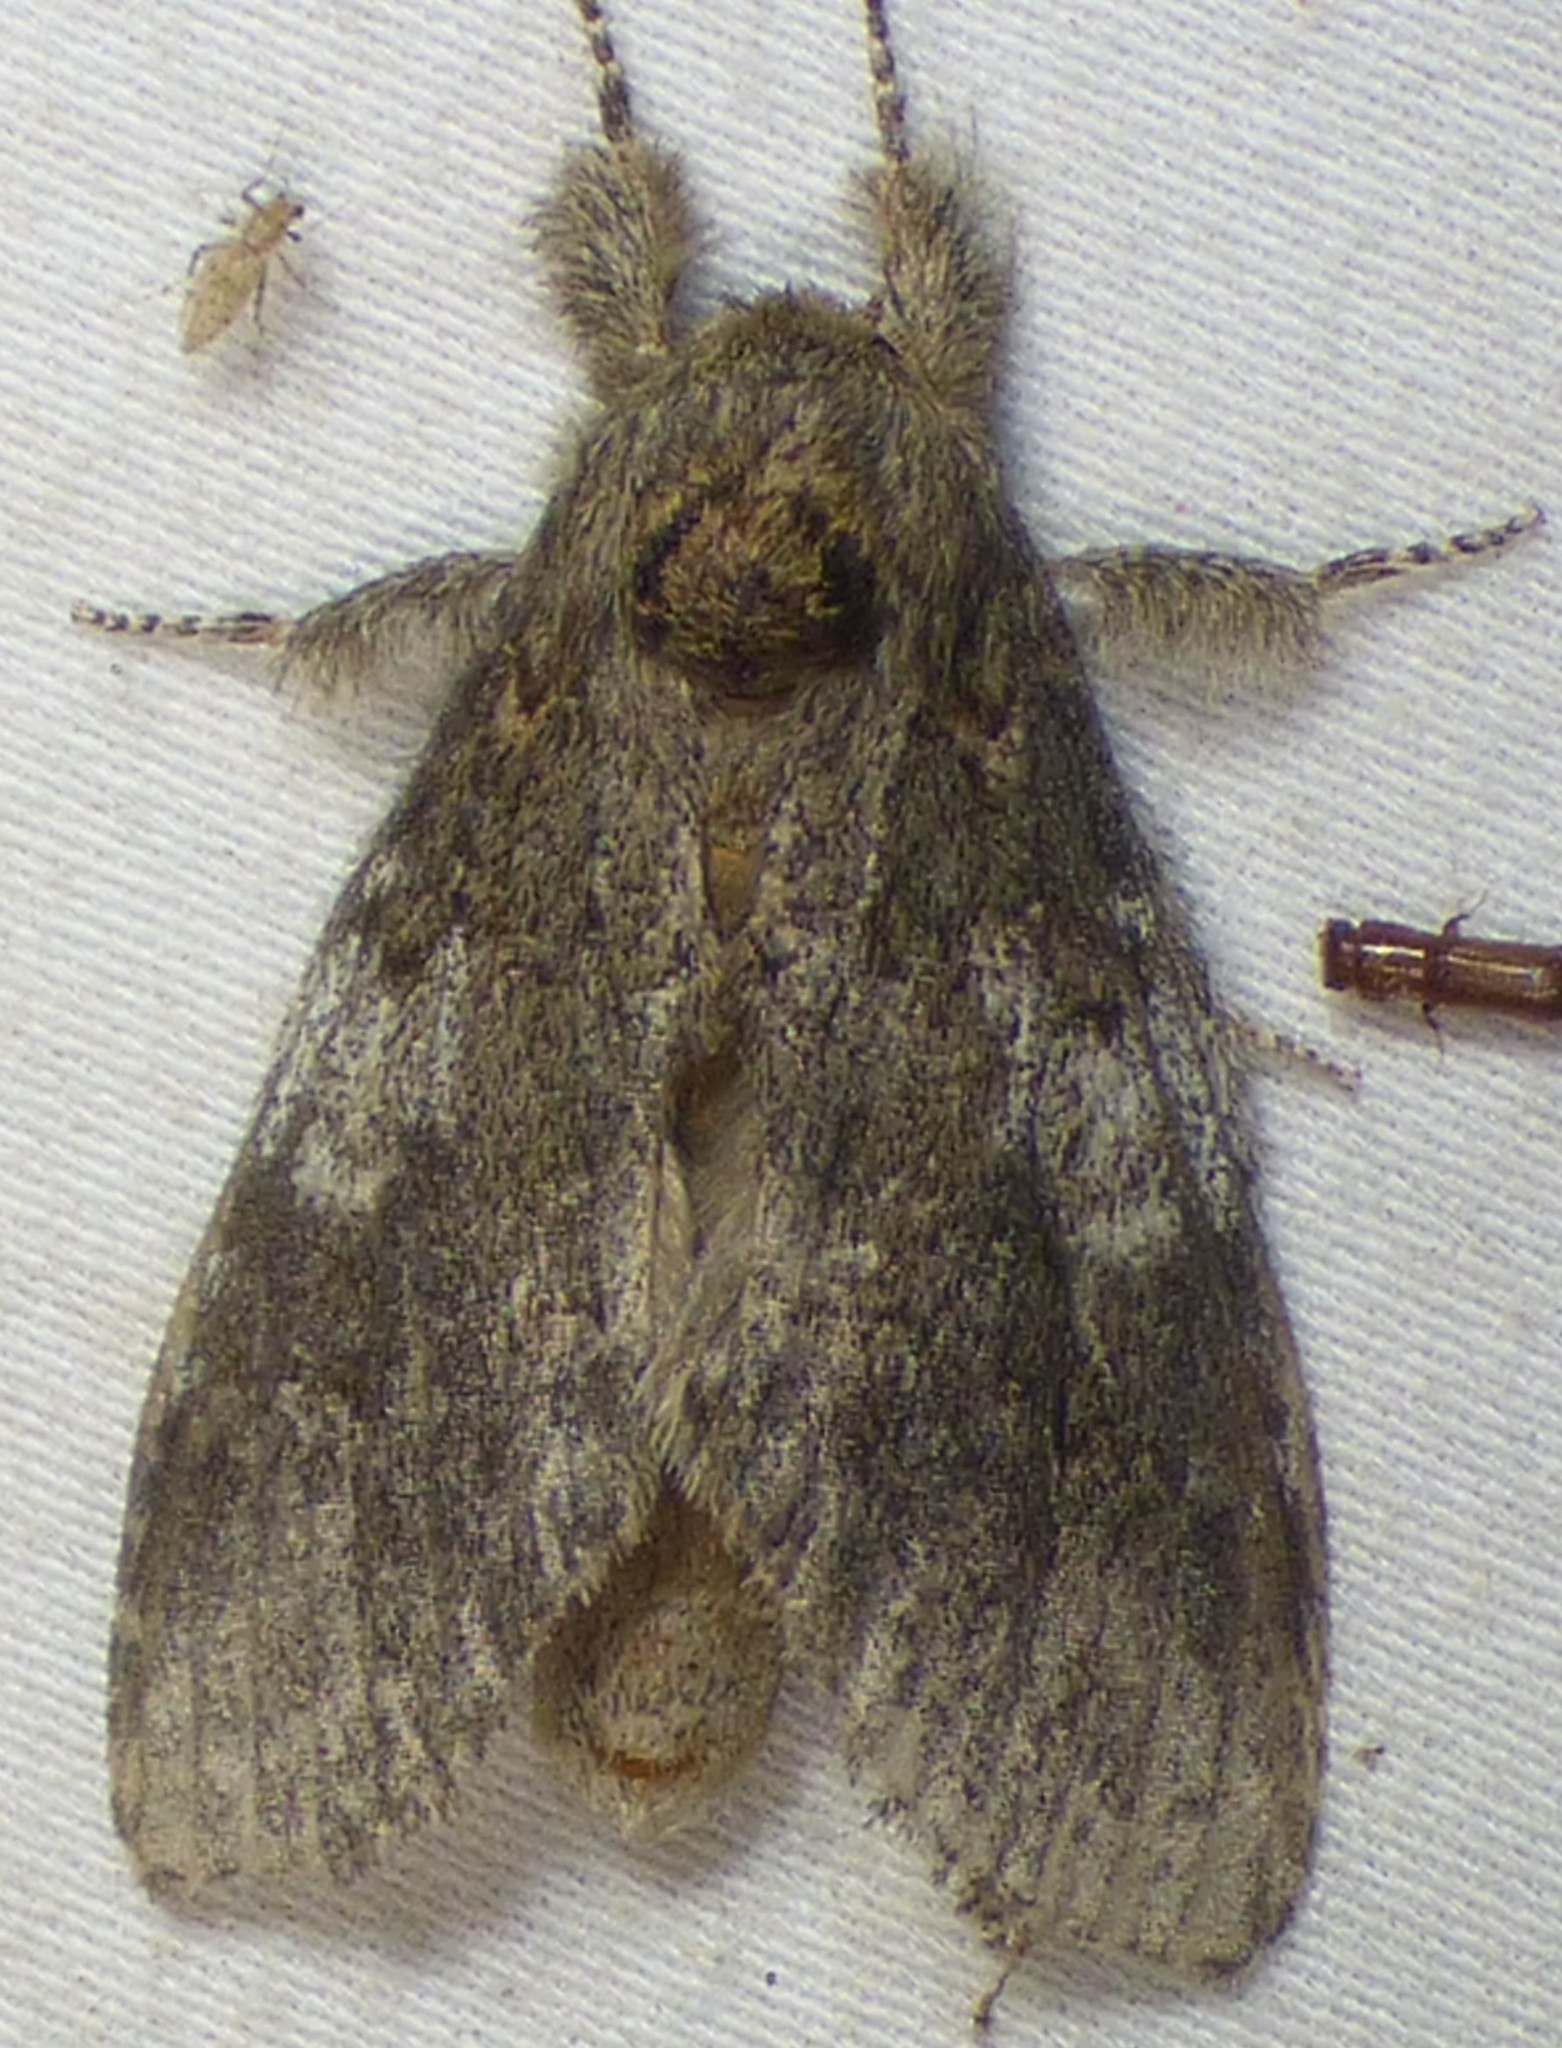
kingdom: Animalia
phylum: Arthropoda
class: Insecta
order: Lepidoptera
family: Notodontidae
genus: Peridea
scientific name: Peridea angulosa
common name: Angulose prominent
